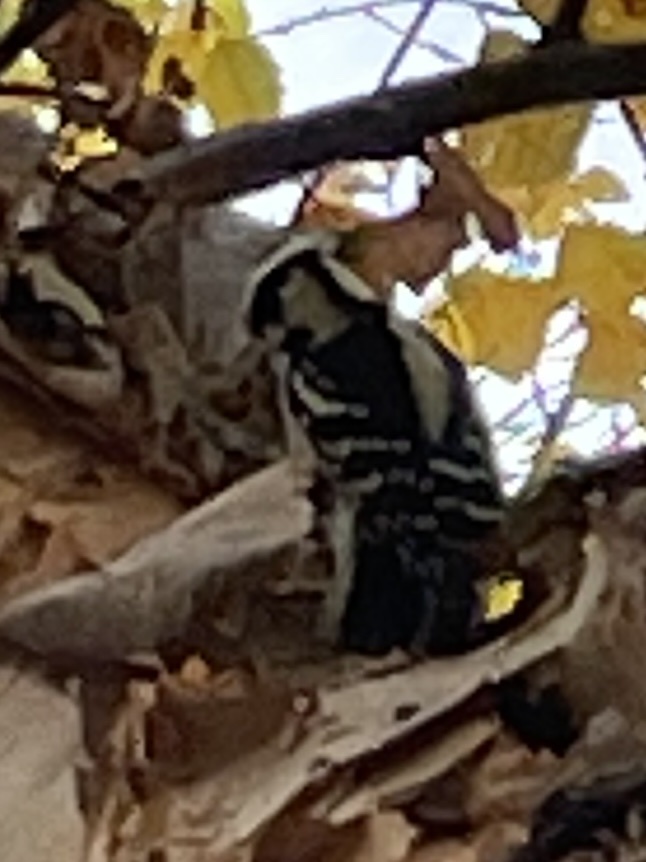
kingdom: Animalia
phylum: Chordata
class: Aves
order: Piciformes
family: Picidae
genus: Dryobates
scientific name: Dryobates pubescens
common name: Downy woodpecker
